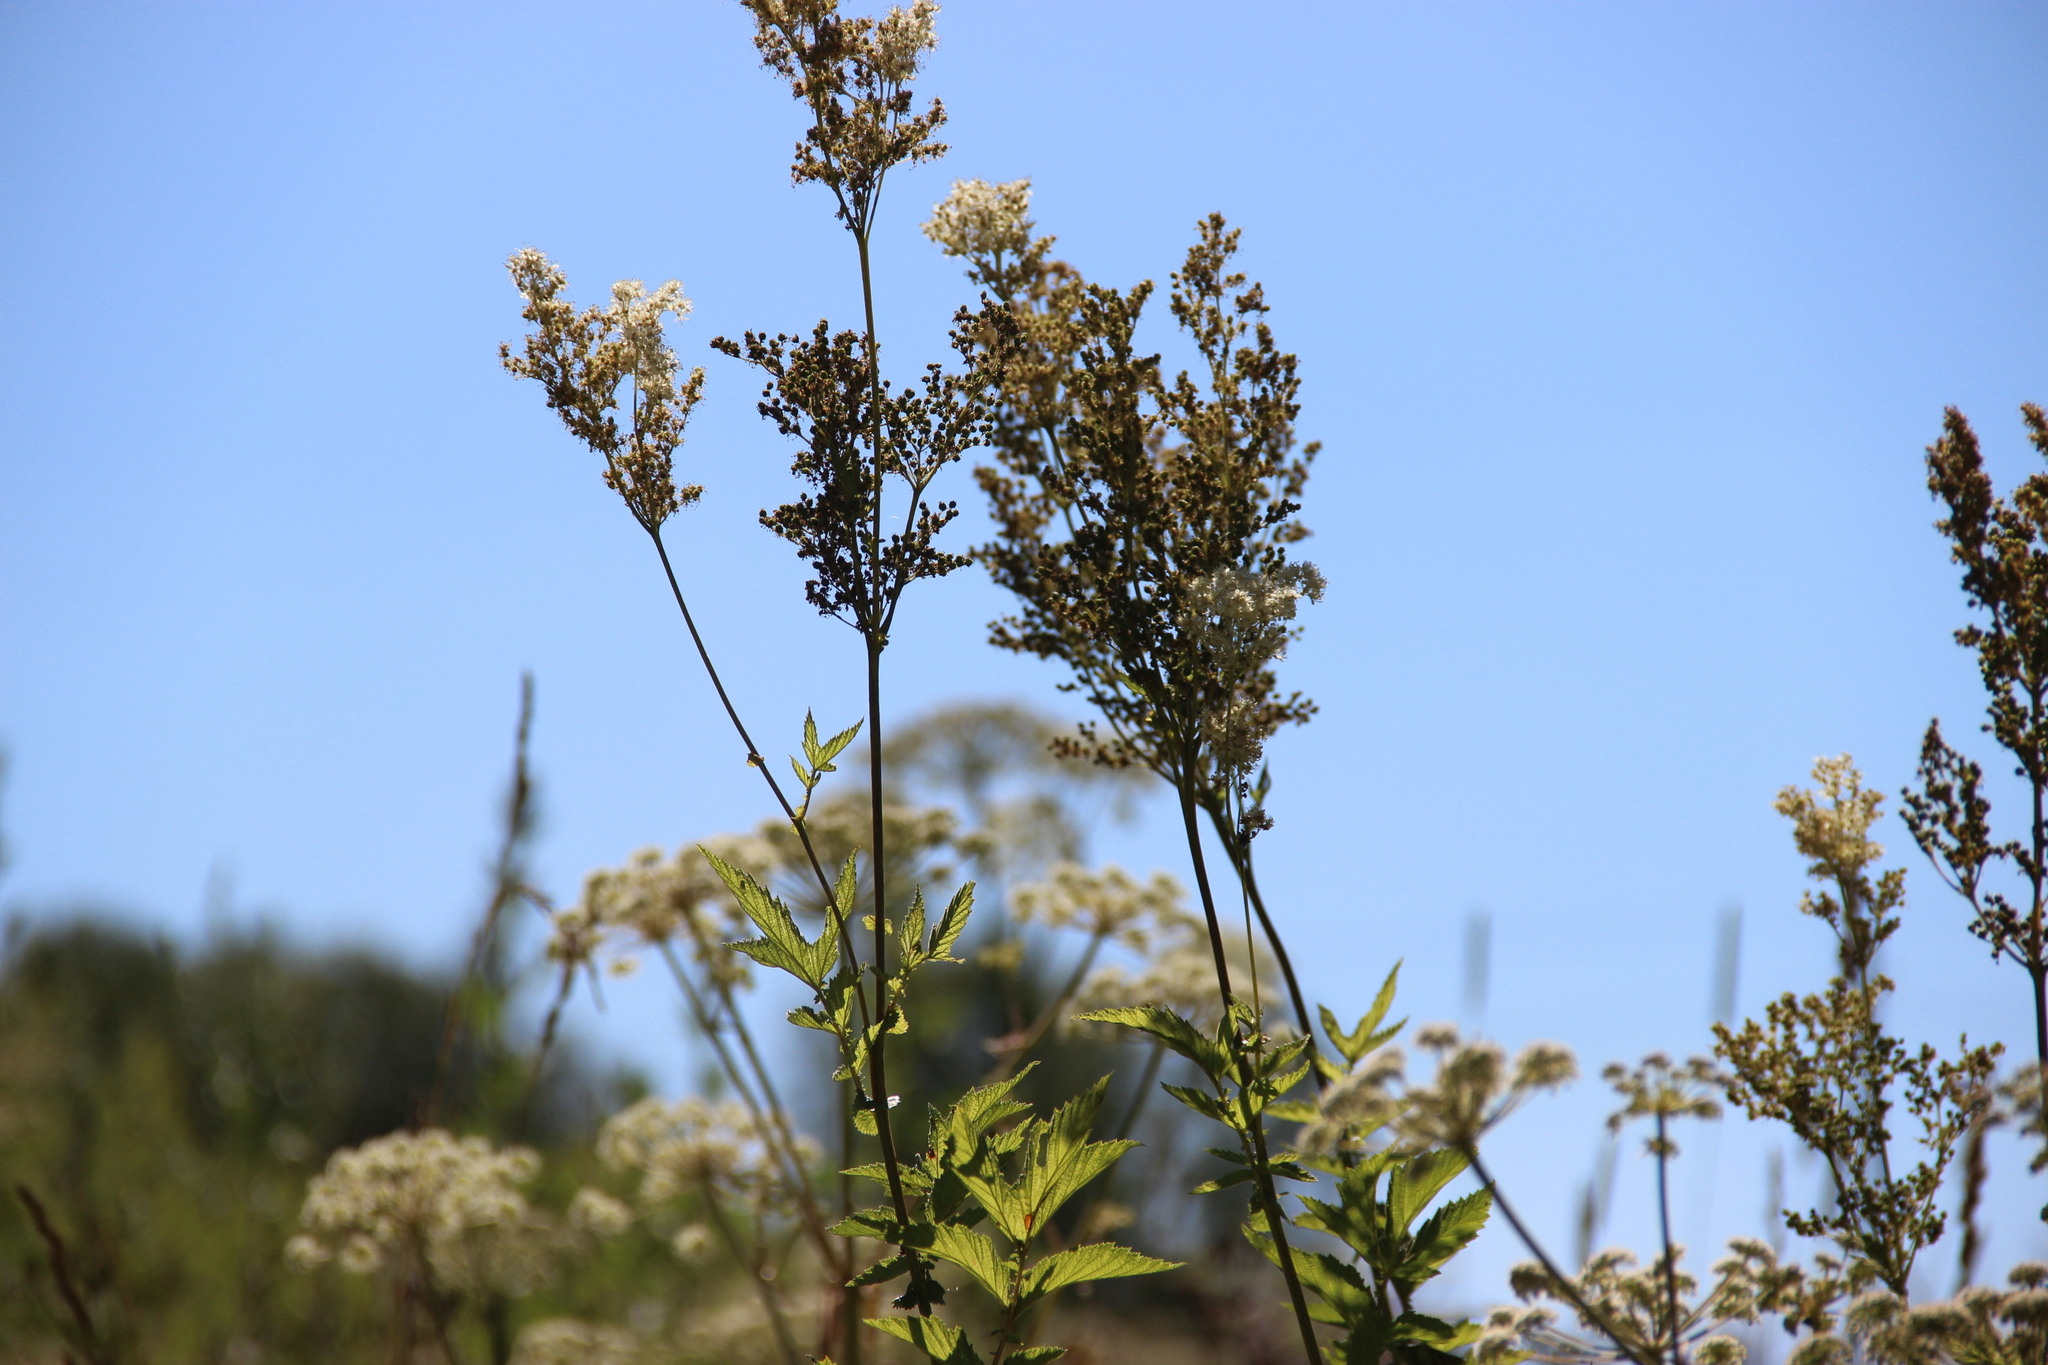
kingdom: Plantae
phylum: Tracheophyta
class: Magnoliopsida
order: Rosales
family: Rosaceae
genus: Filipendula
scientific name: Filipendula ulmaria
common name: Meadowsweet
